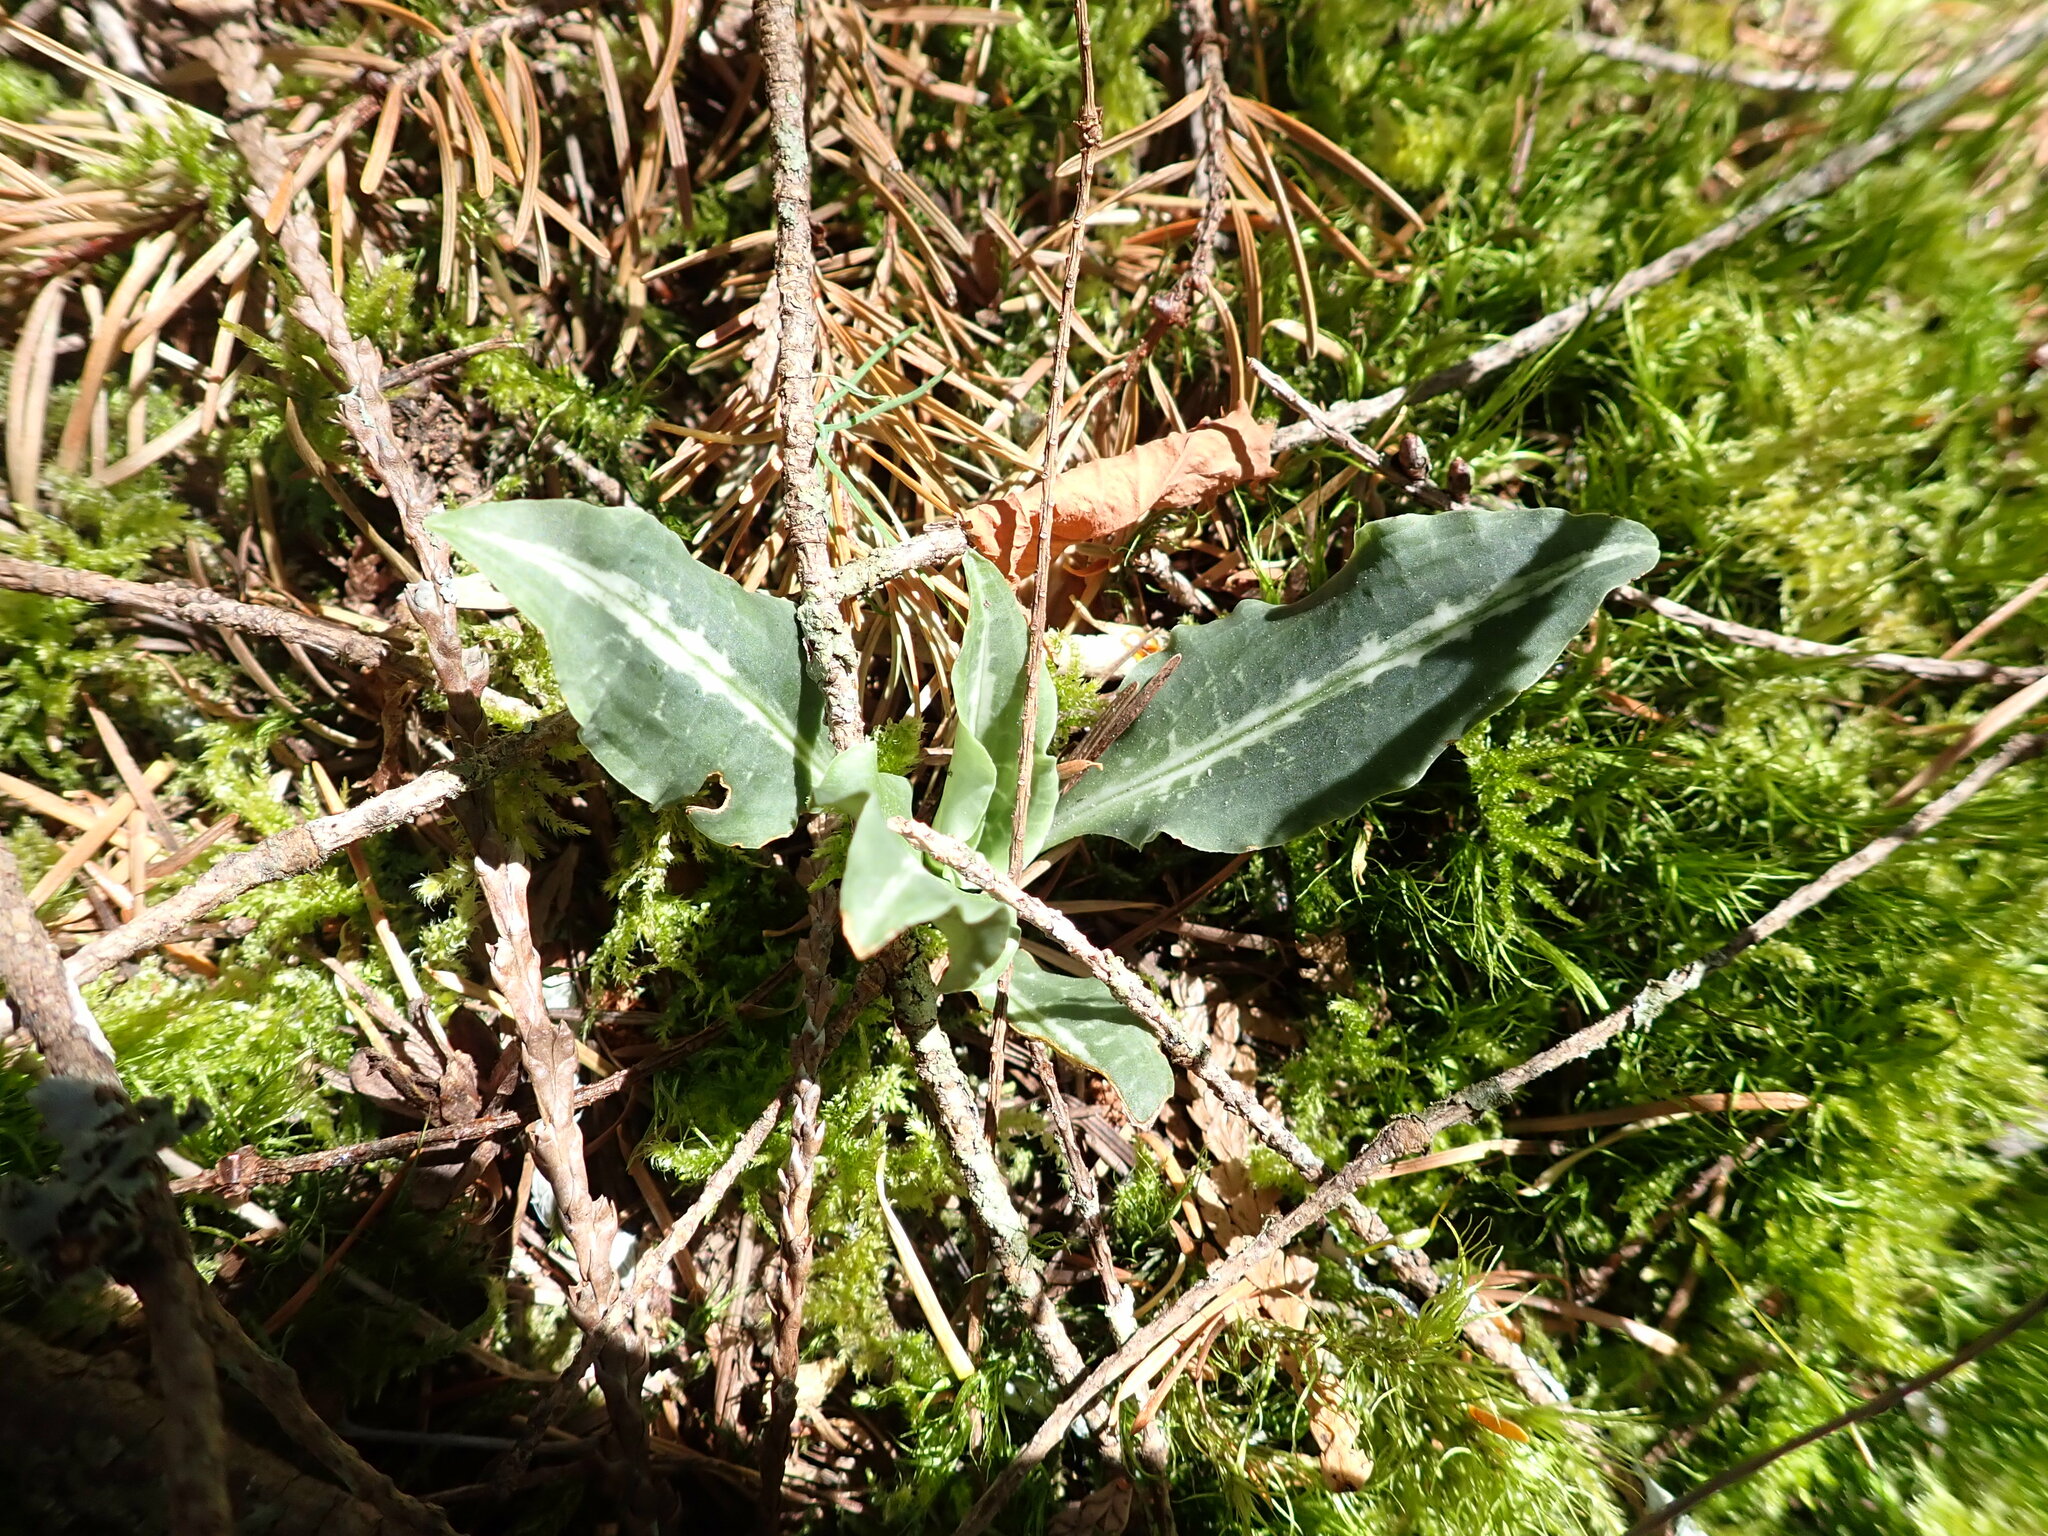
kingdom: Plantae
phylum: Tracheophyta
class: Liliopsida
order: Asparagales
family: Orchidaceae
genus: Goodyera
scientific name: Goodyera oblongifolia
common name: Giant rattlesnake-plantain
